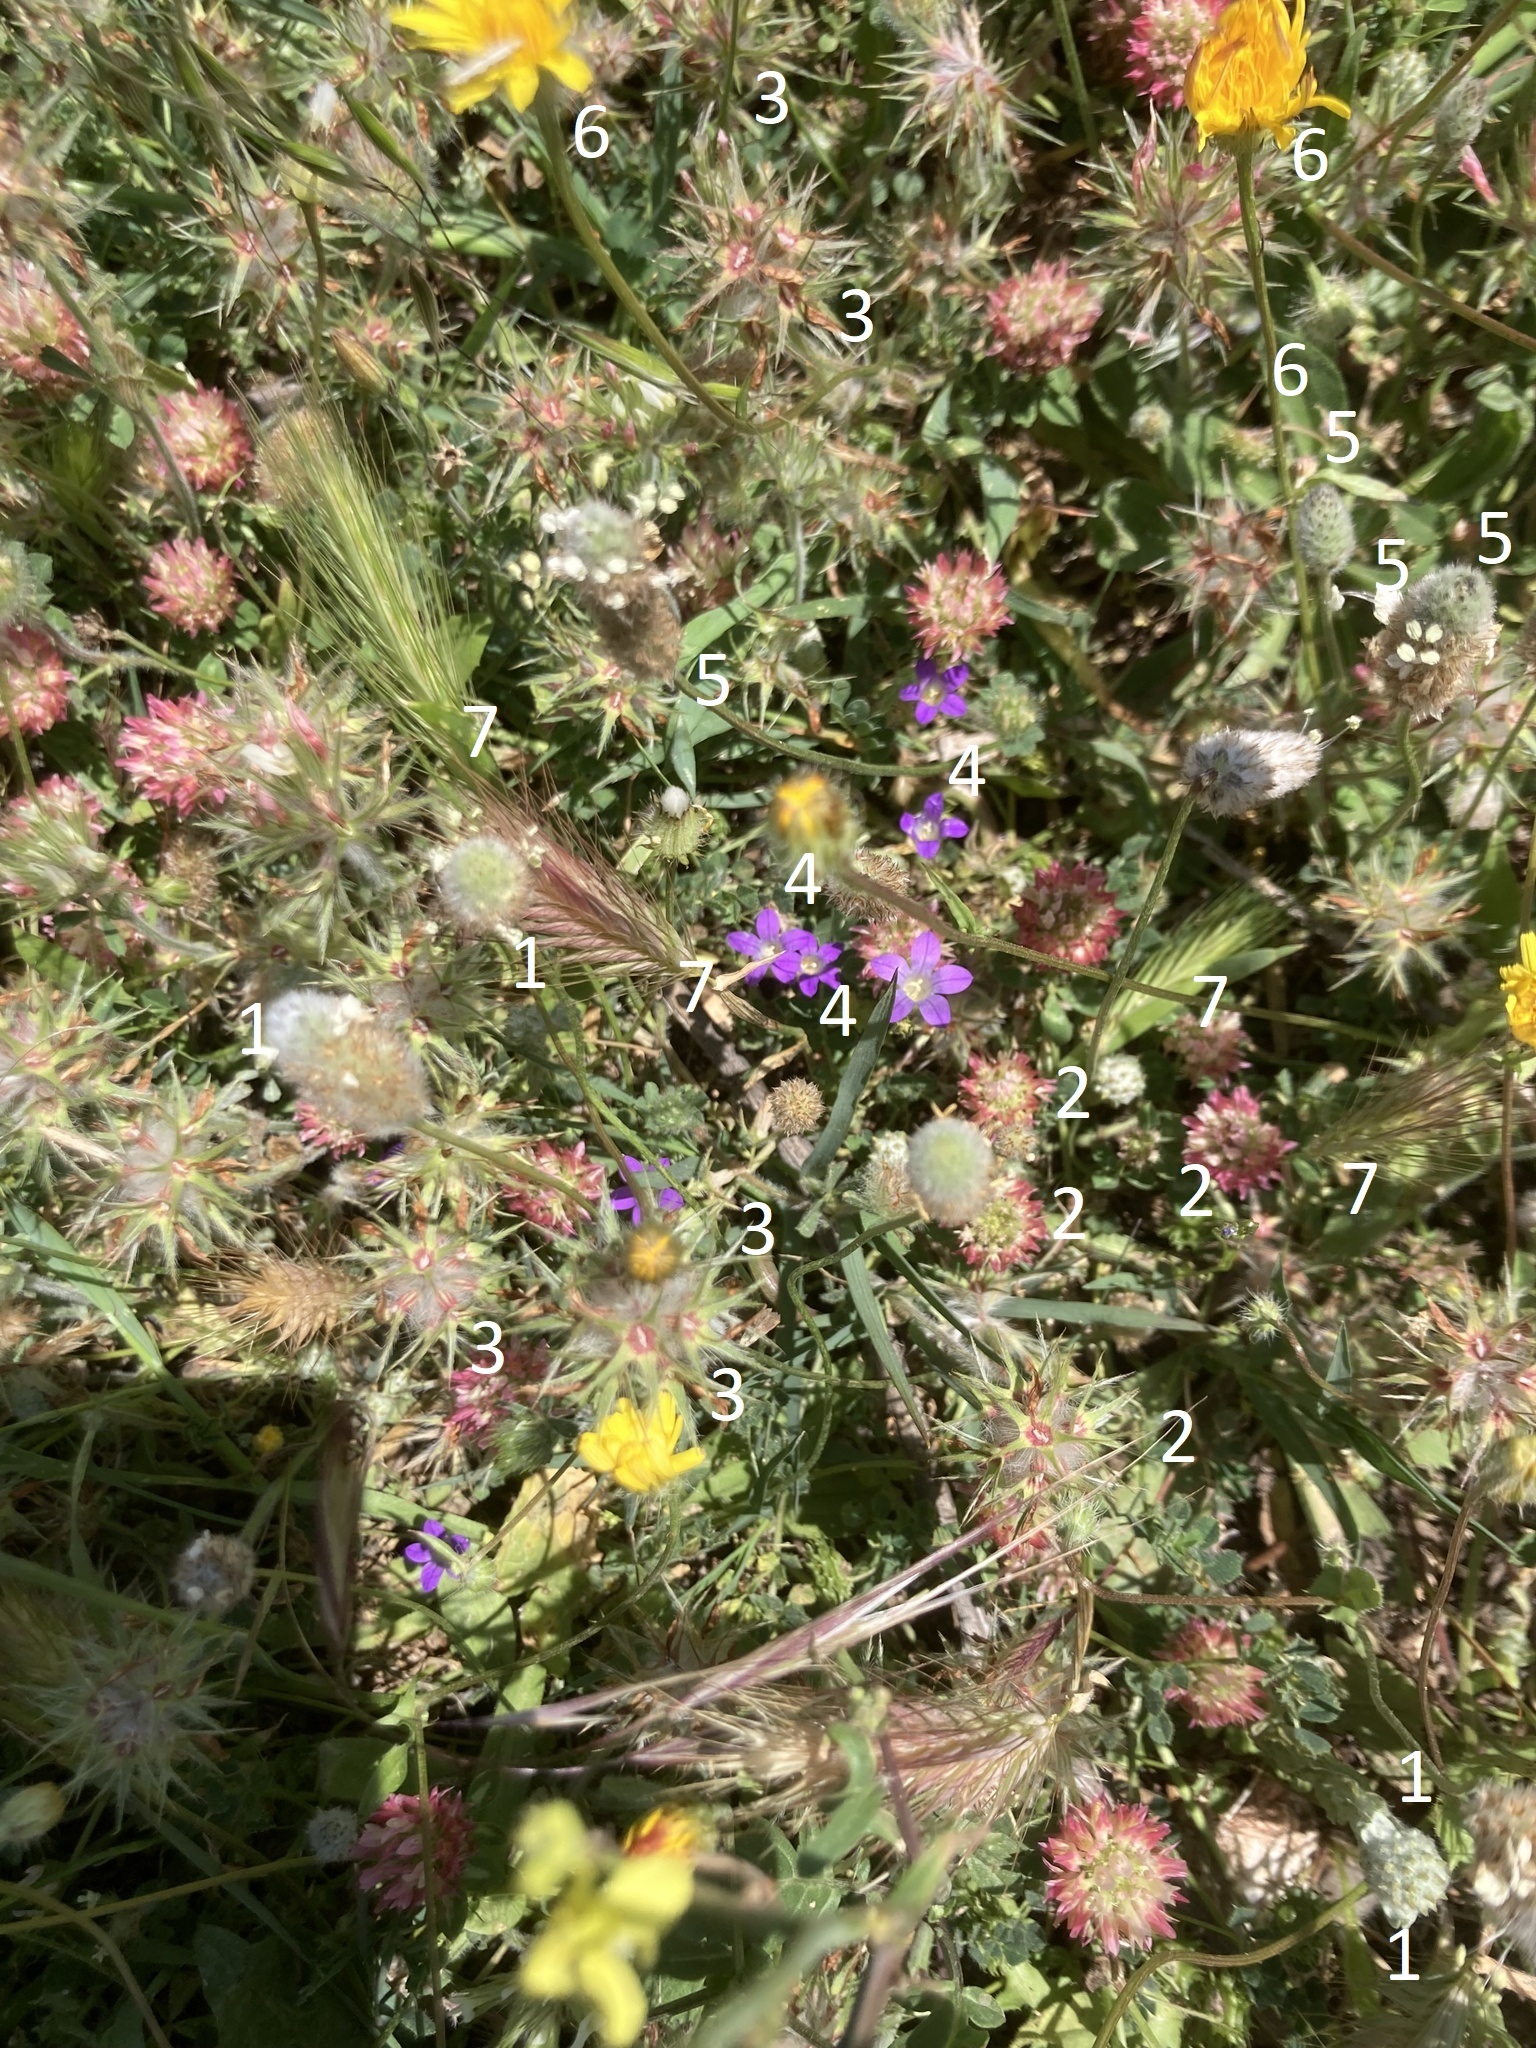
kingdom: Plantae
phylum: Tracheophyta
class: Magnoliopsida
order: Fabales
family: Fabaceae
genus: Trifolium
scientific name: Trifolium stellatum
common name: Starry clover
